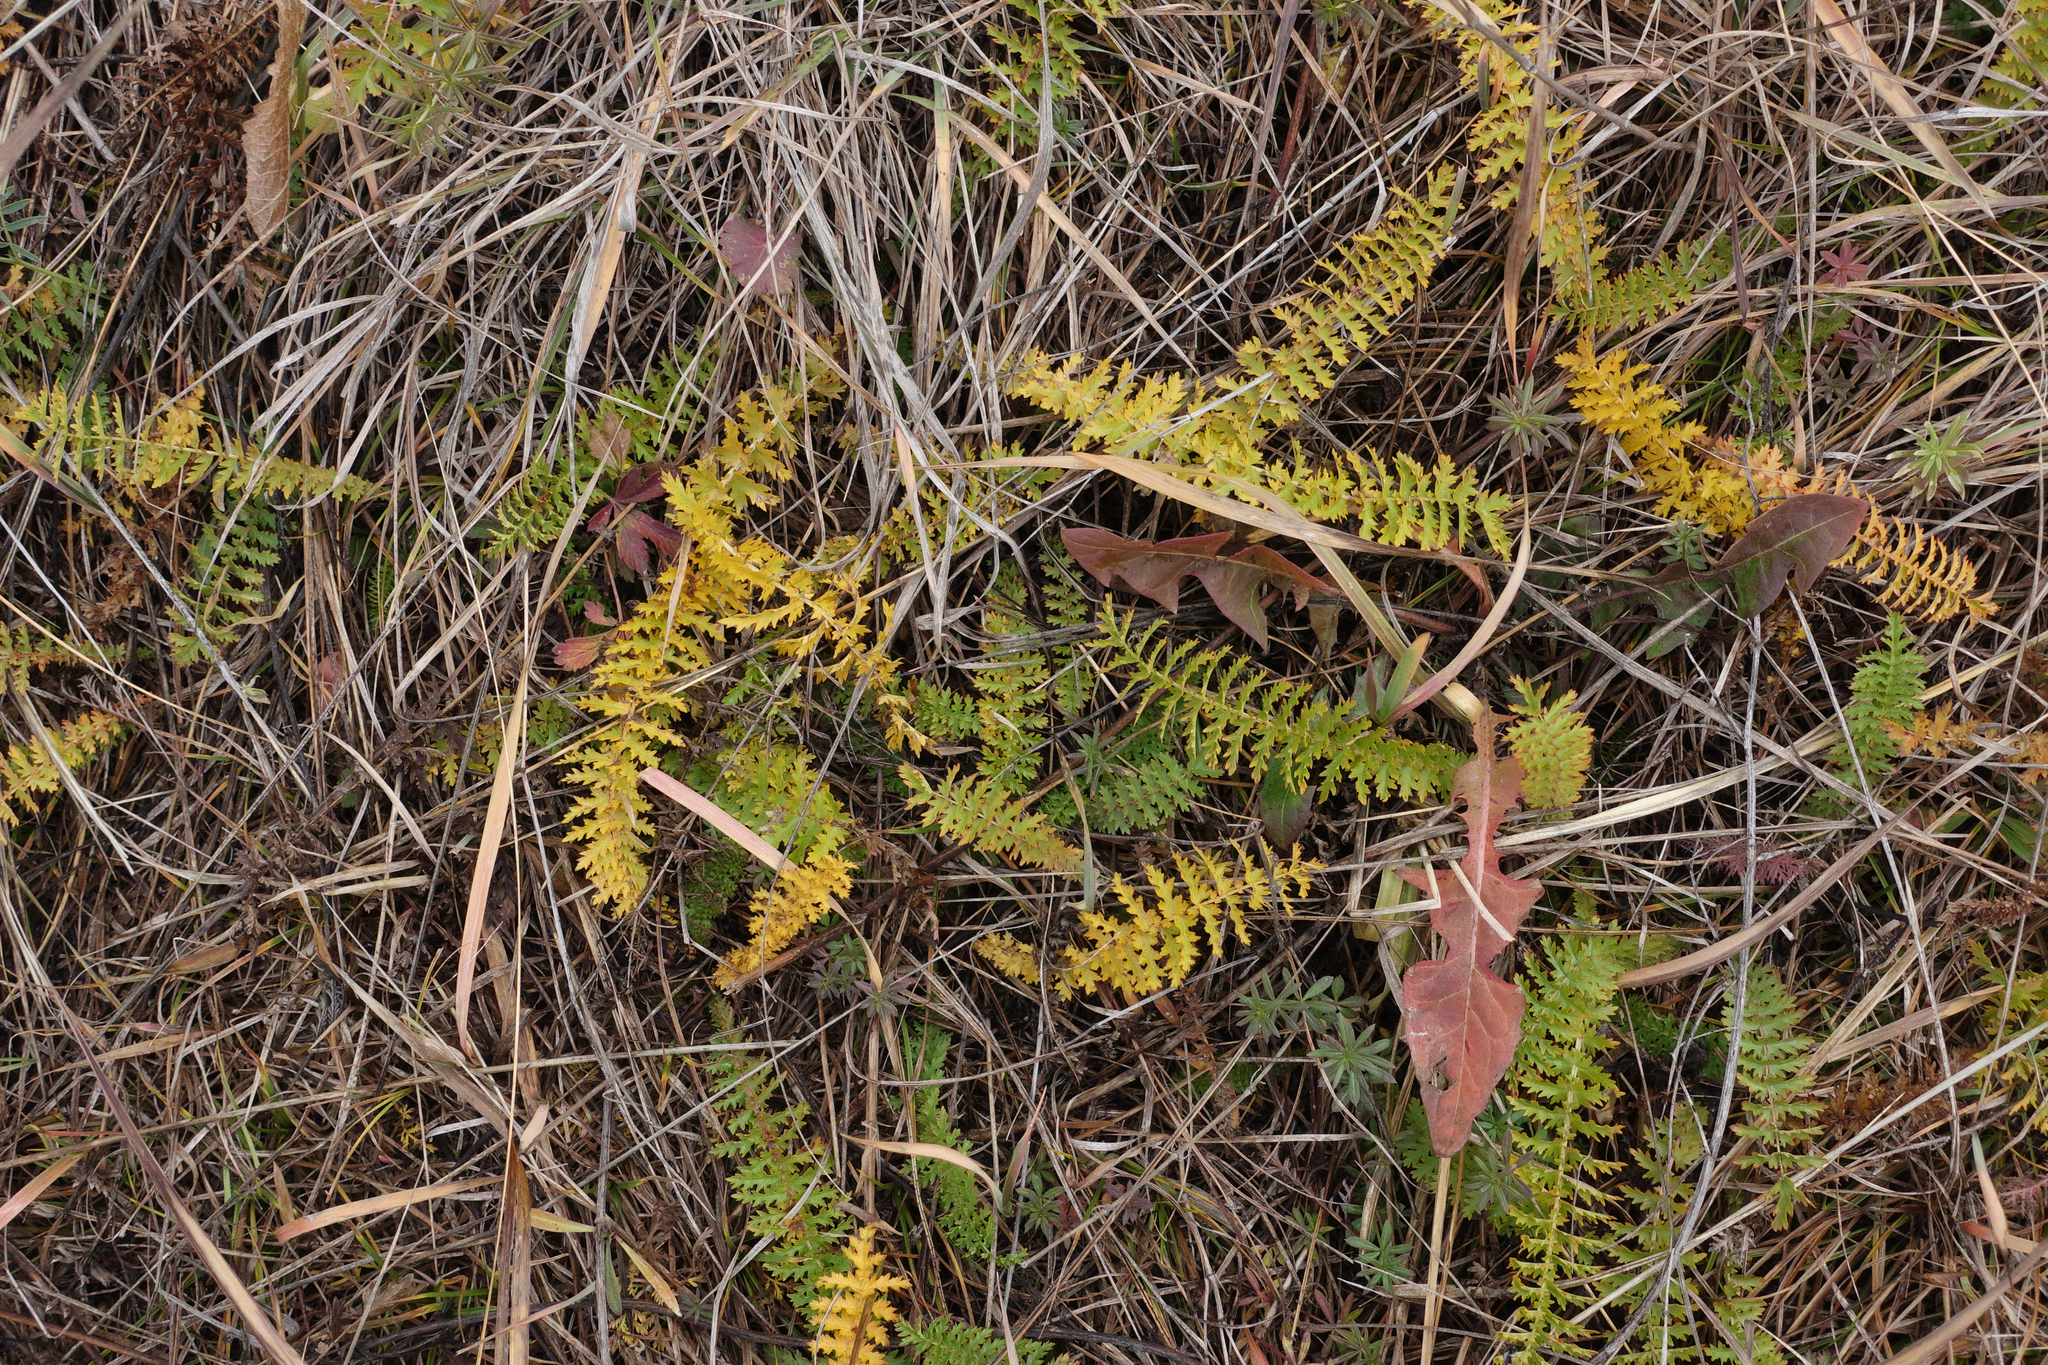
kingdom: Plantae
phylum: Tracheophyta
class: Magnoliopsida
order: Rosales
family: Rosaceae
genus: Filipendula
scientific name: Filipendula vulgaris
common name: Dropwort
